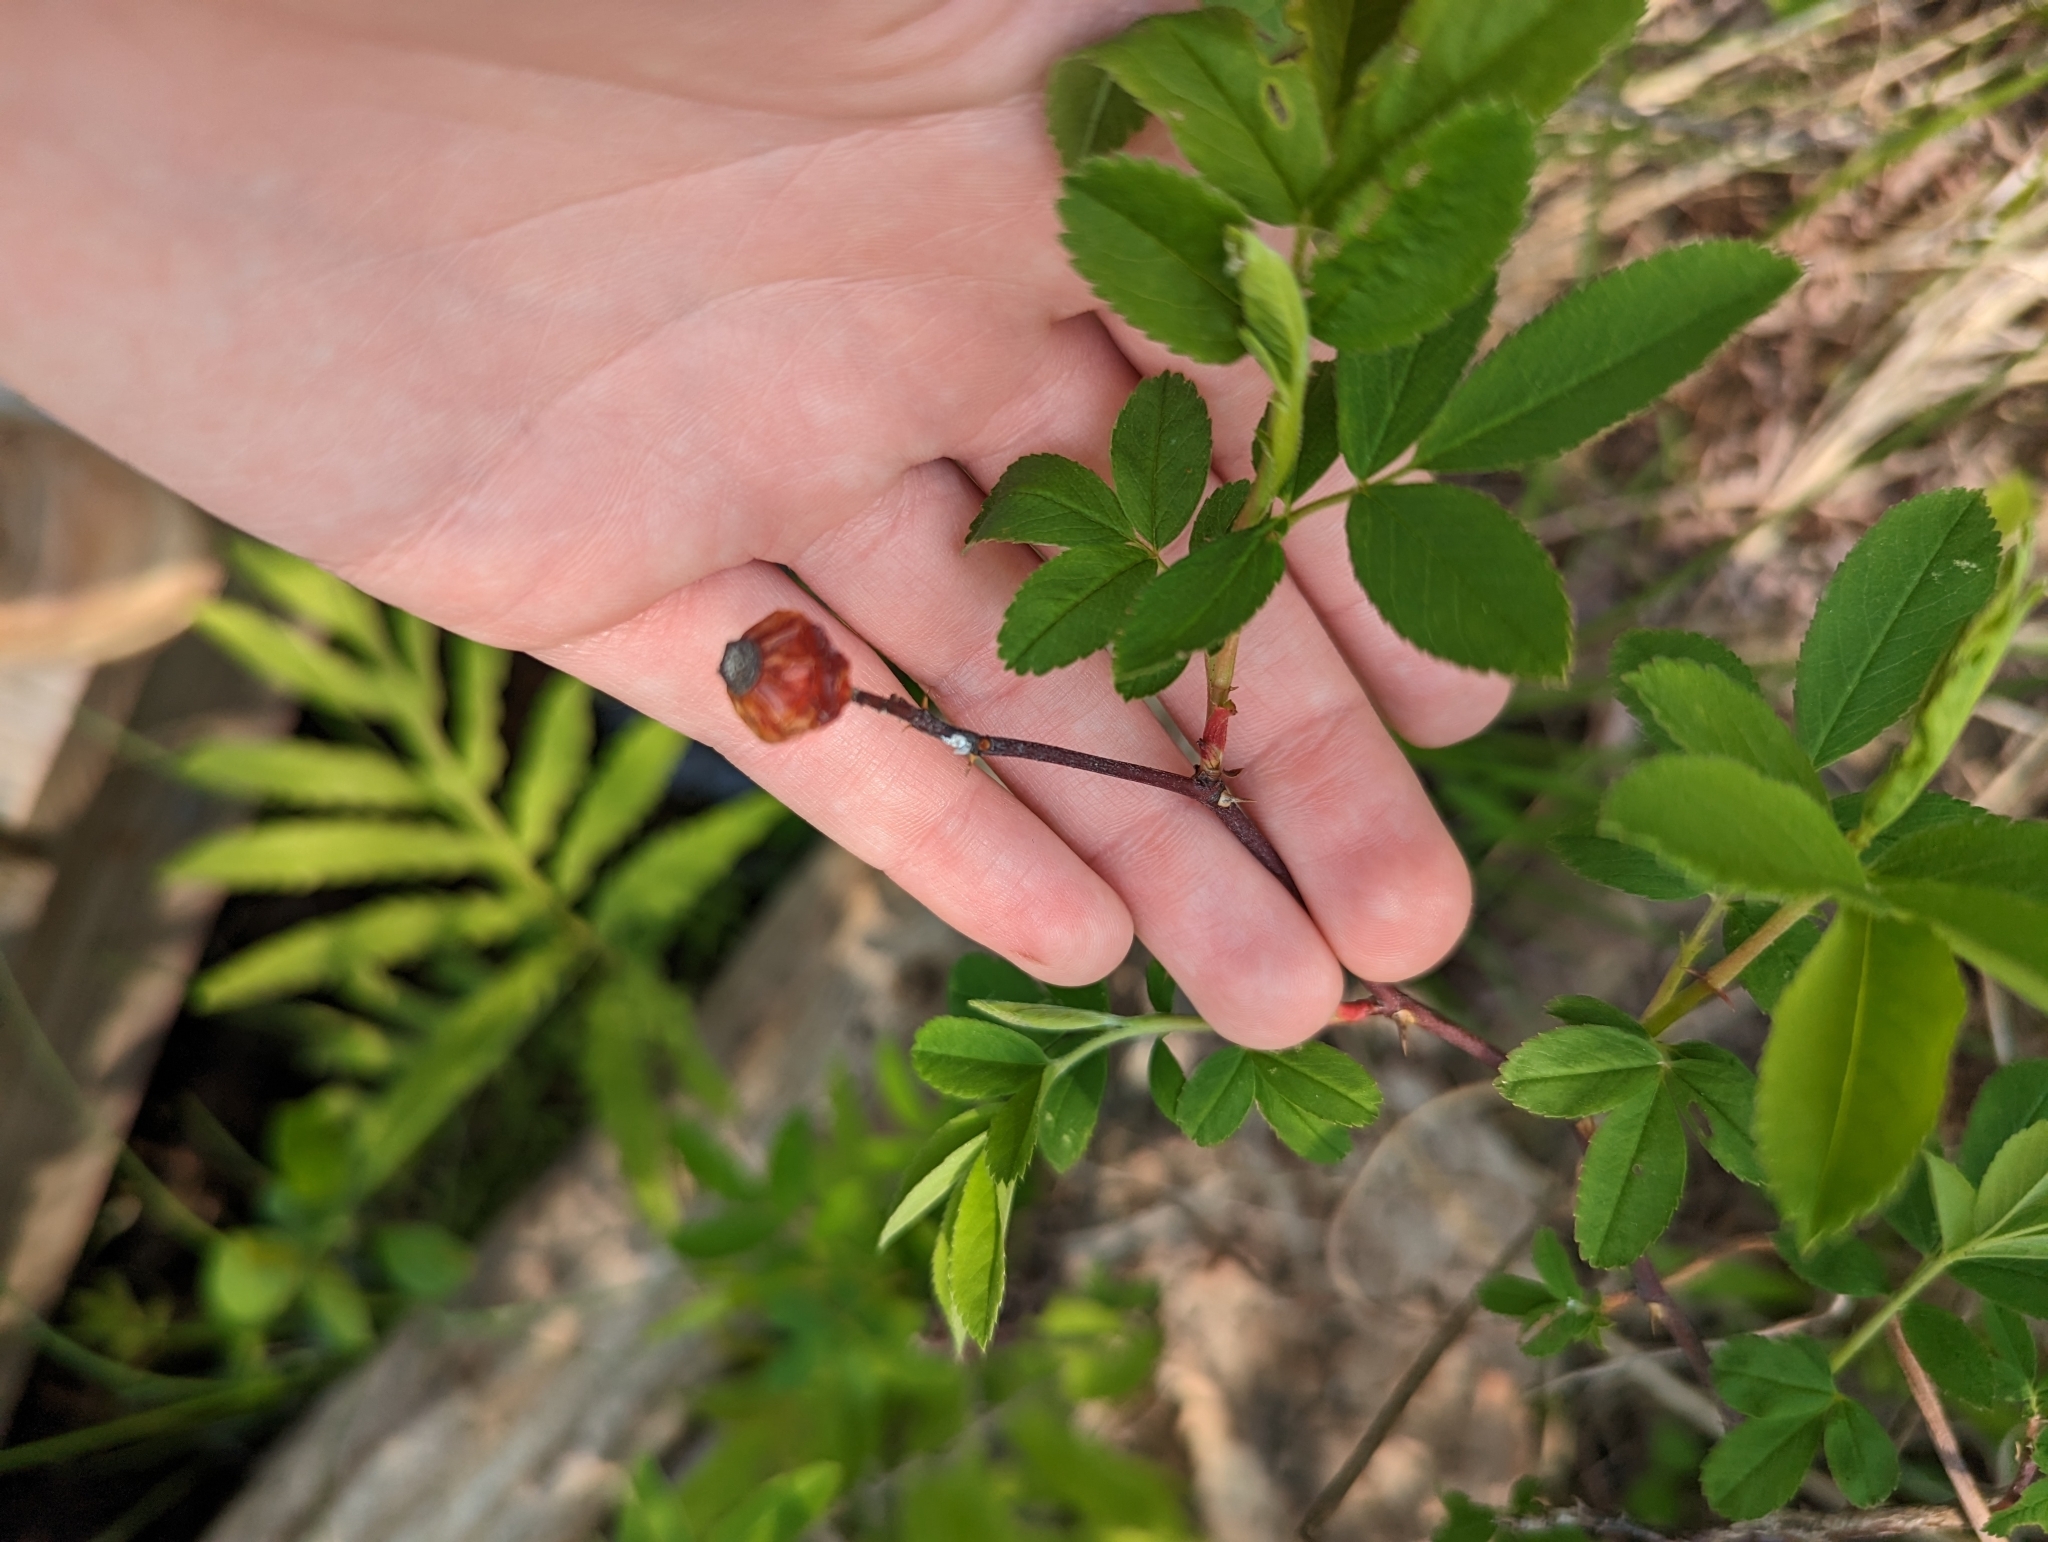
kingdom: Plantae
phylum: Tracheophyta
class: Magnoliopsida
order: Rosales
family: Rosaceae
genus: Rosa
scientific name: Rosa palustris
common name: Swamp rose
